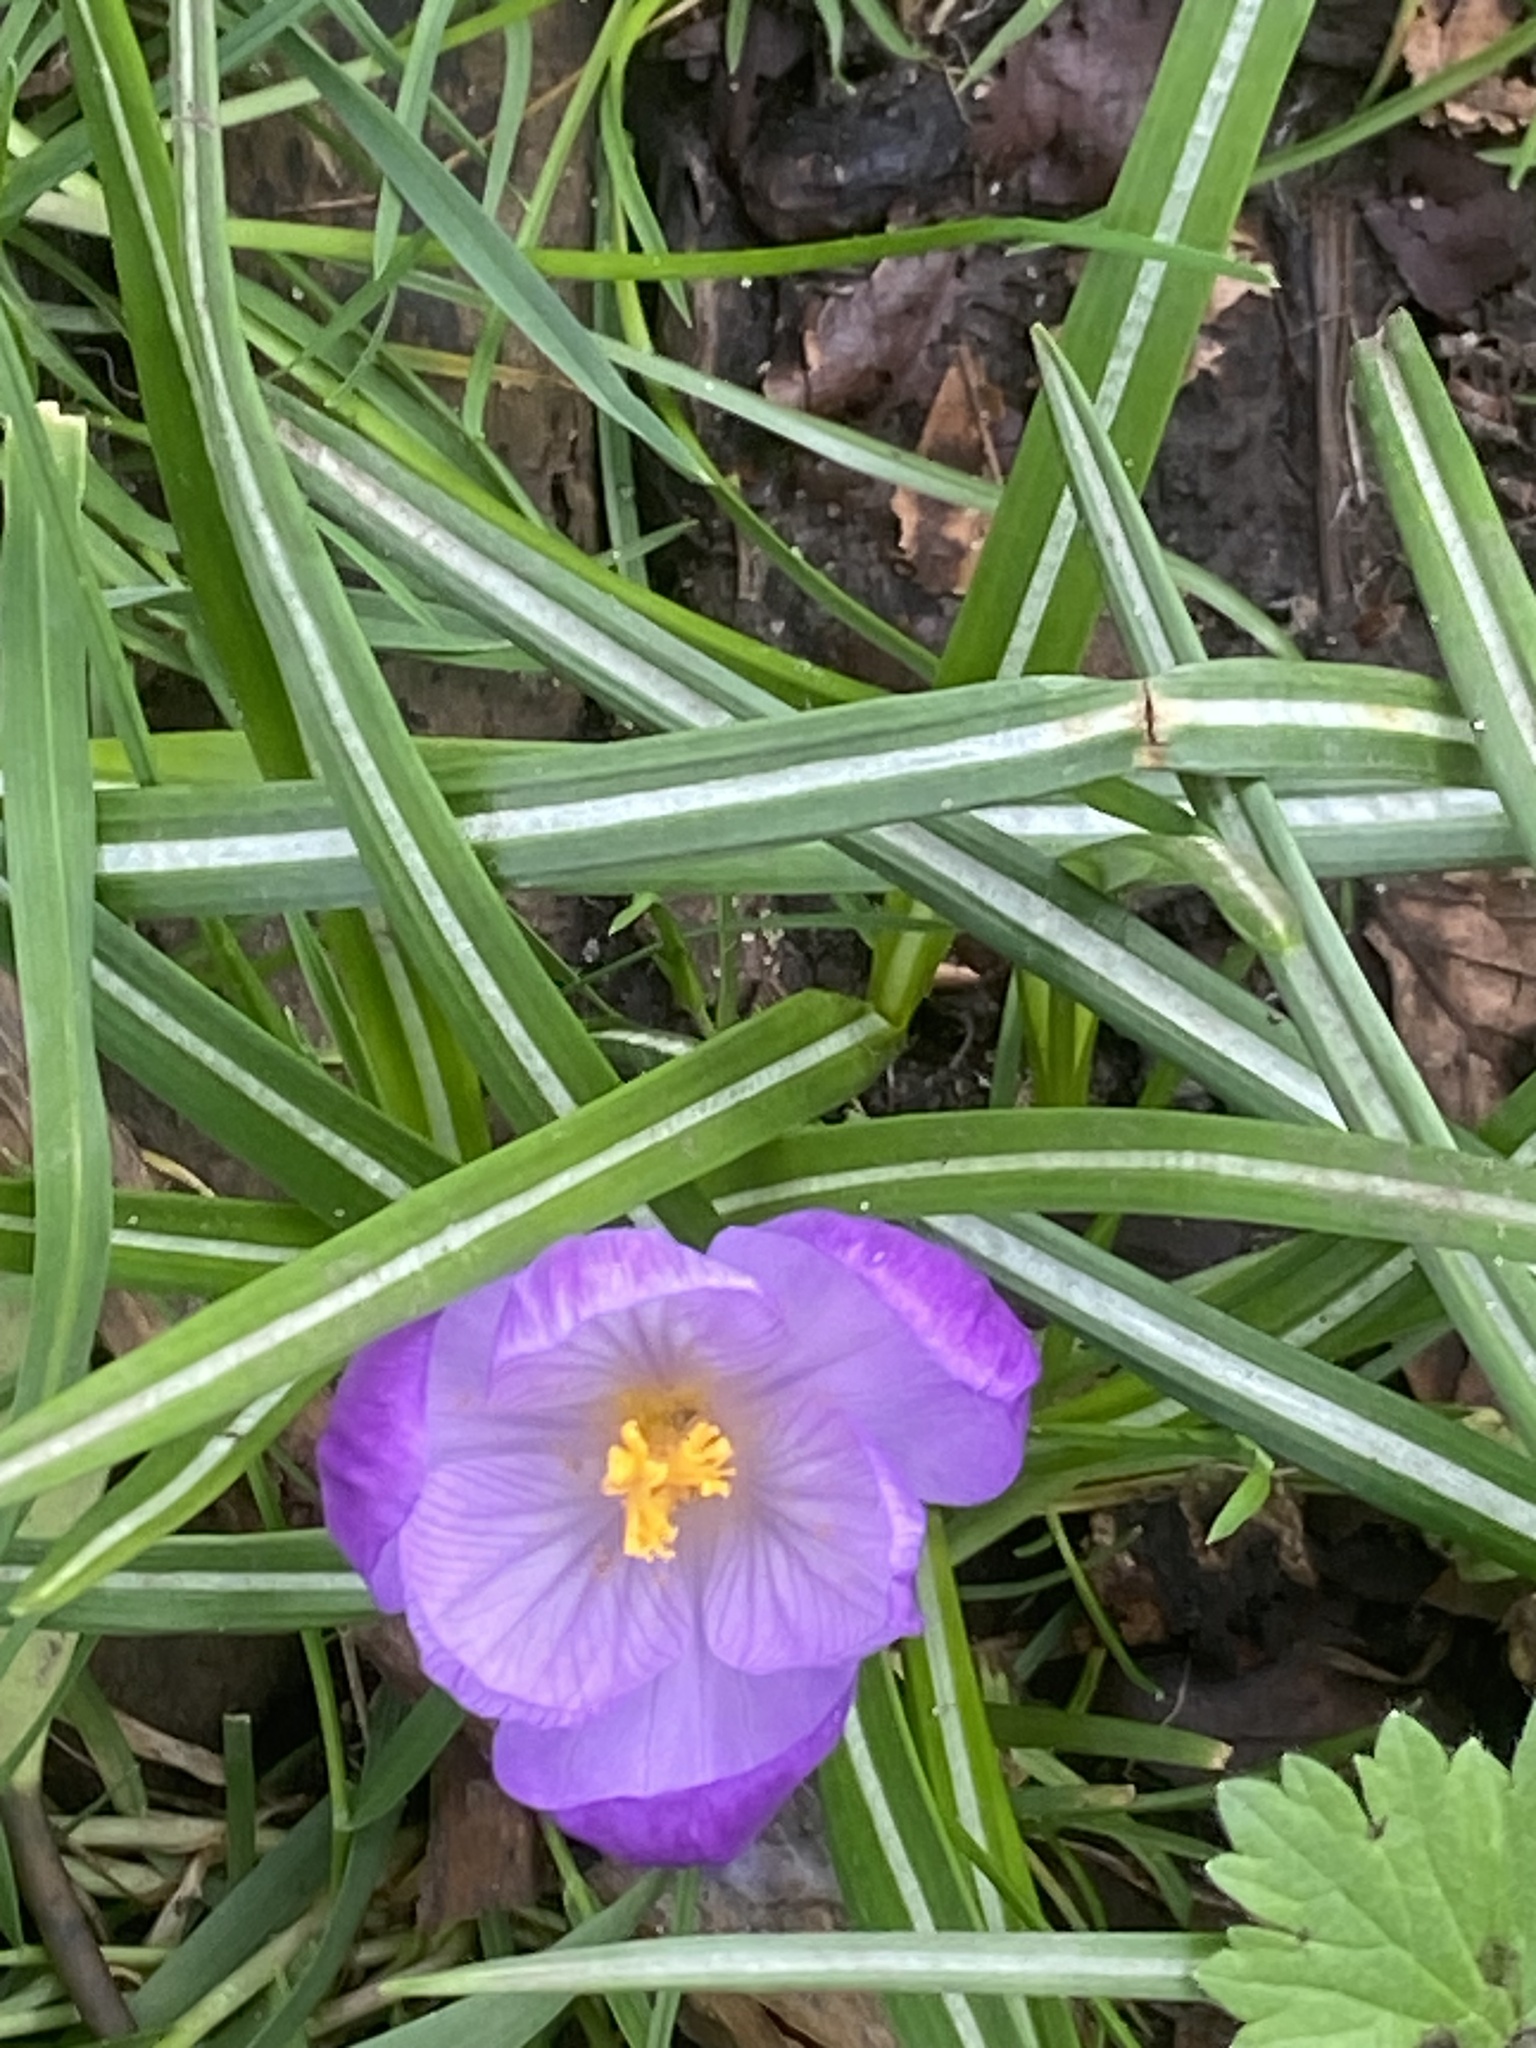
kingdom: Plantae
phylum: Tracheophyta
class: Liliopsida
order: Asparagales
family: Iridaceae
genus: Crocus
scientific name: Crocus neapolitanus
